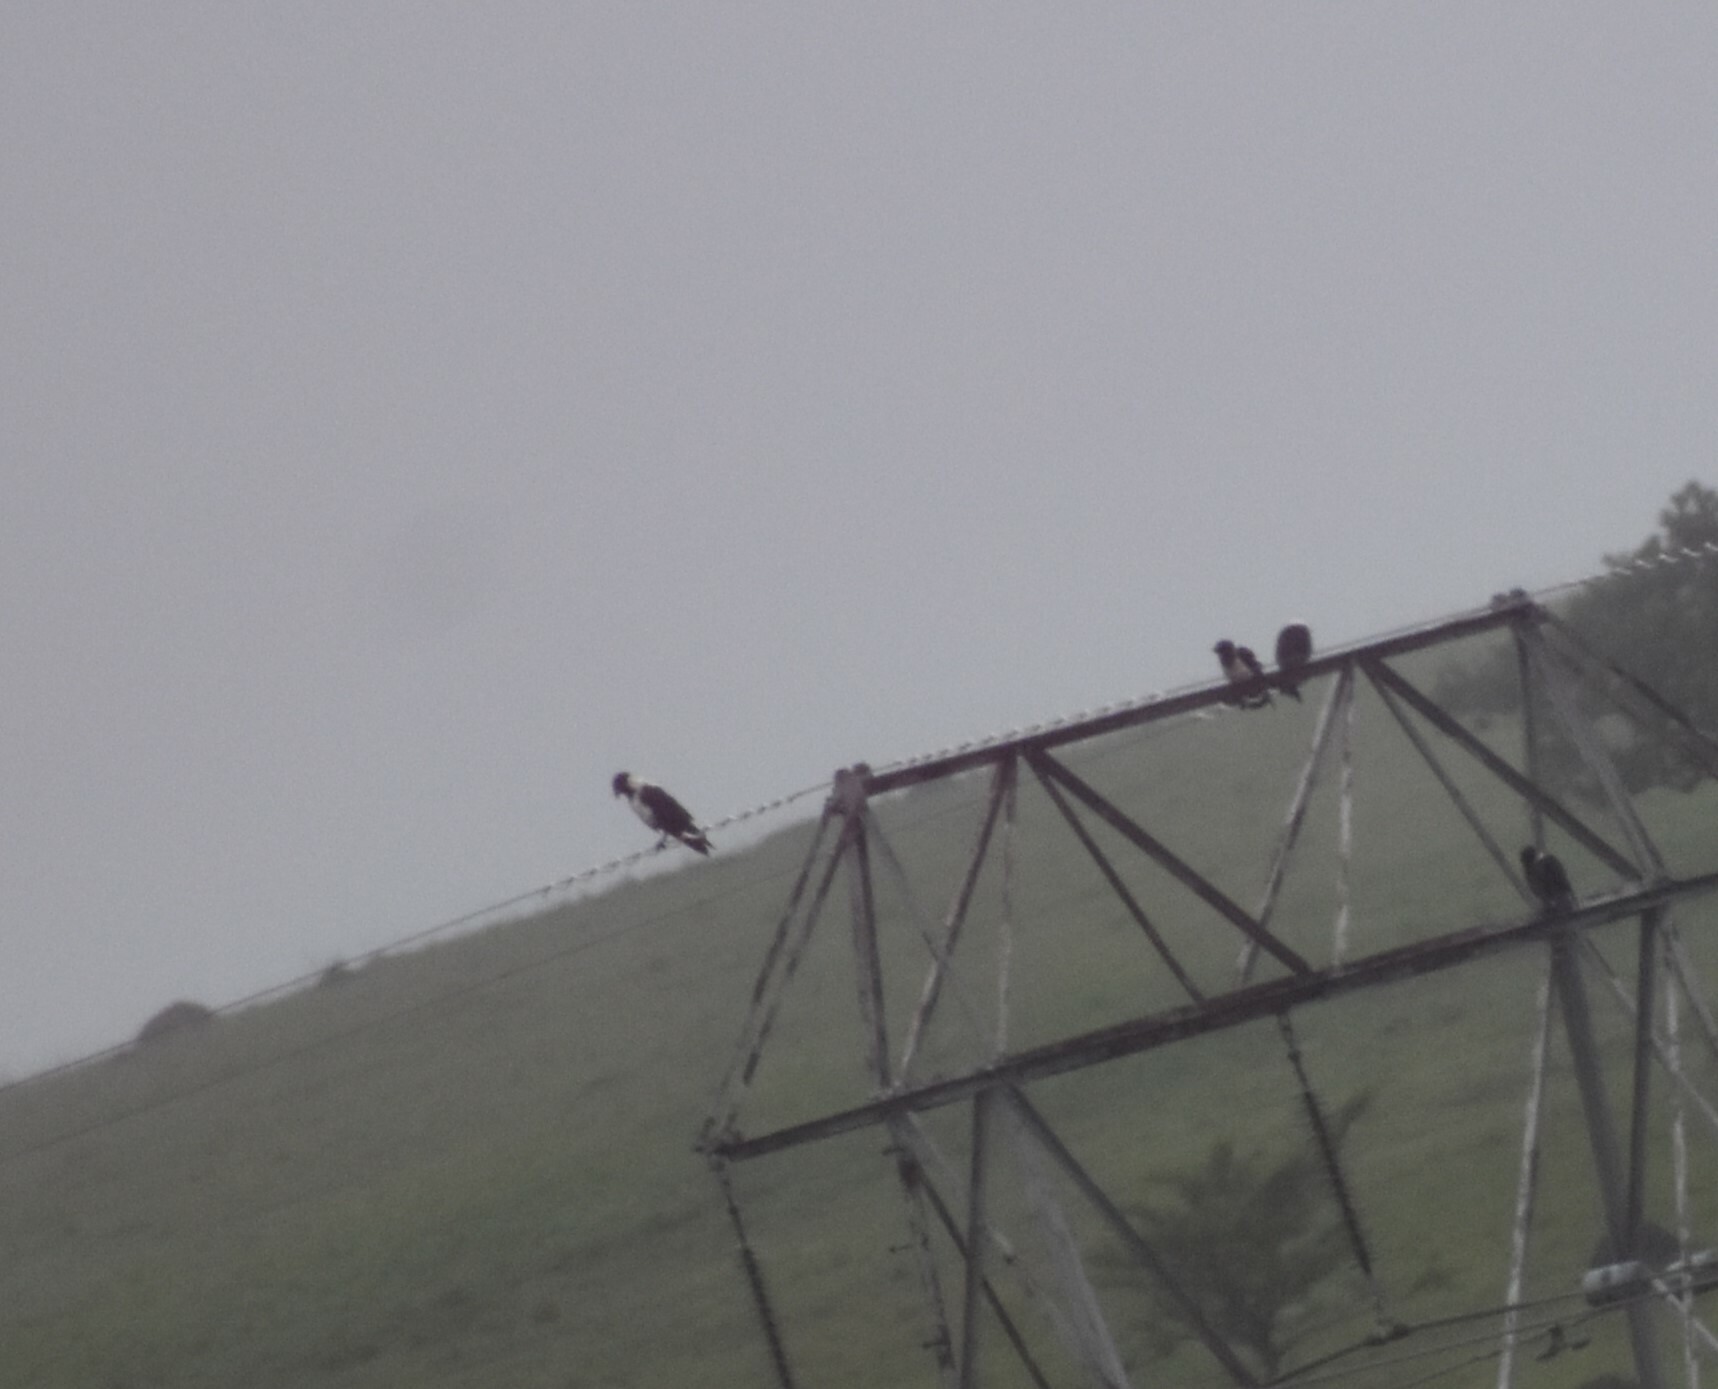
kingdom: Animalia
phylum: Chordata
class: Aves
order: Passeriformes
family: Corvidae
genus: Corvus
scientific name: Corvus albus
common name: Pied crow
